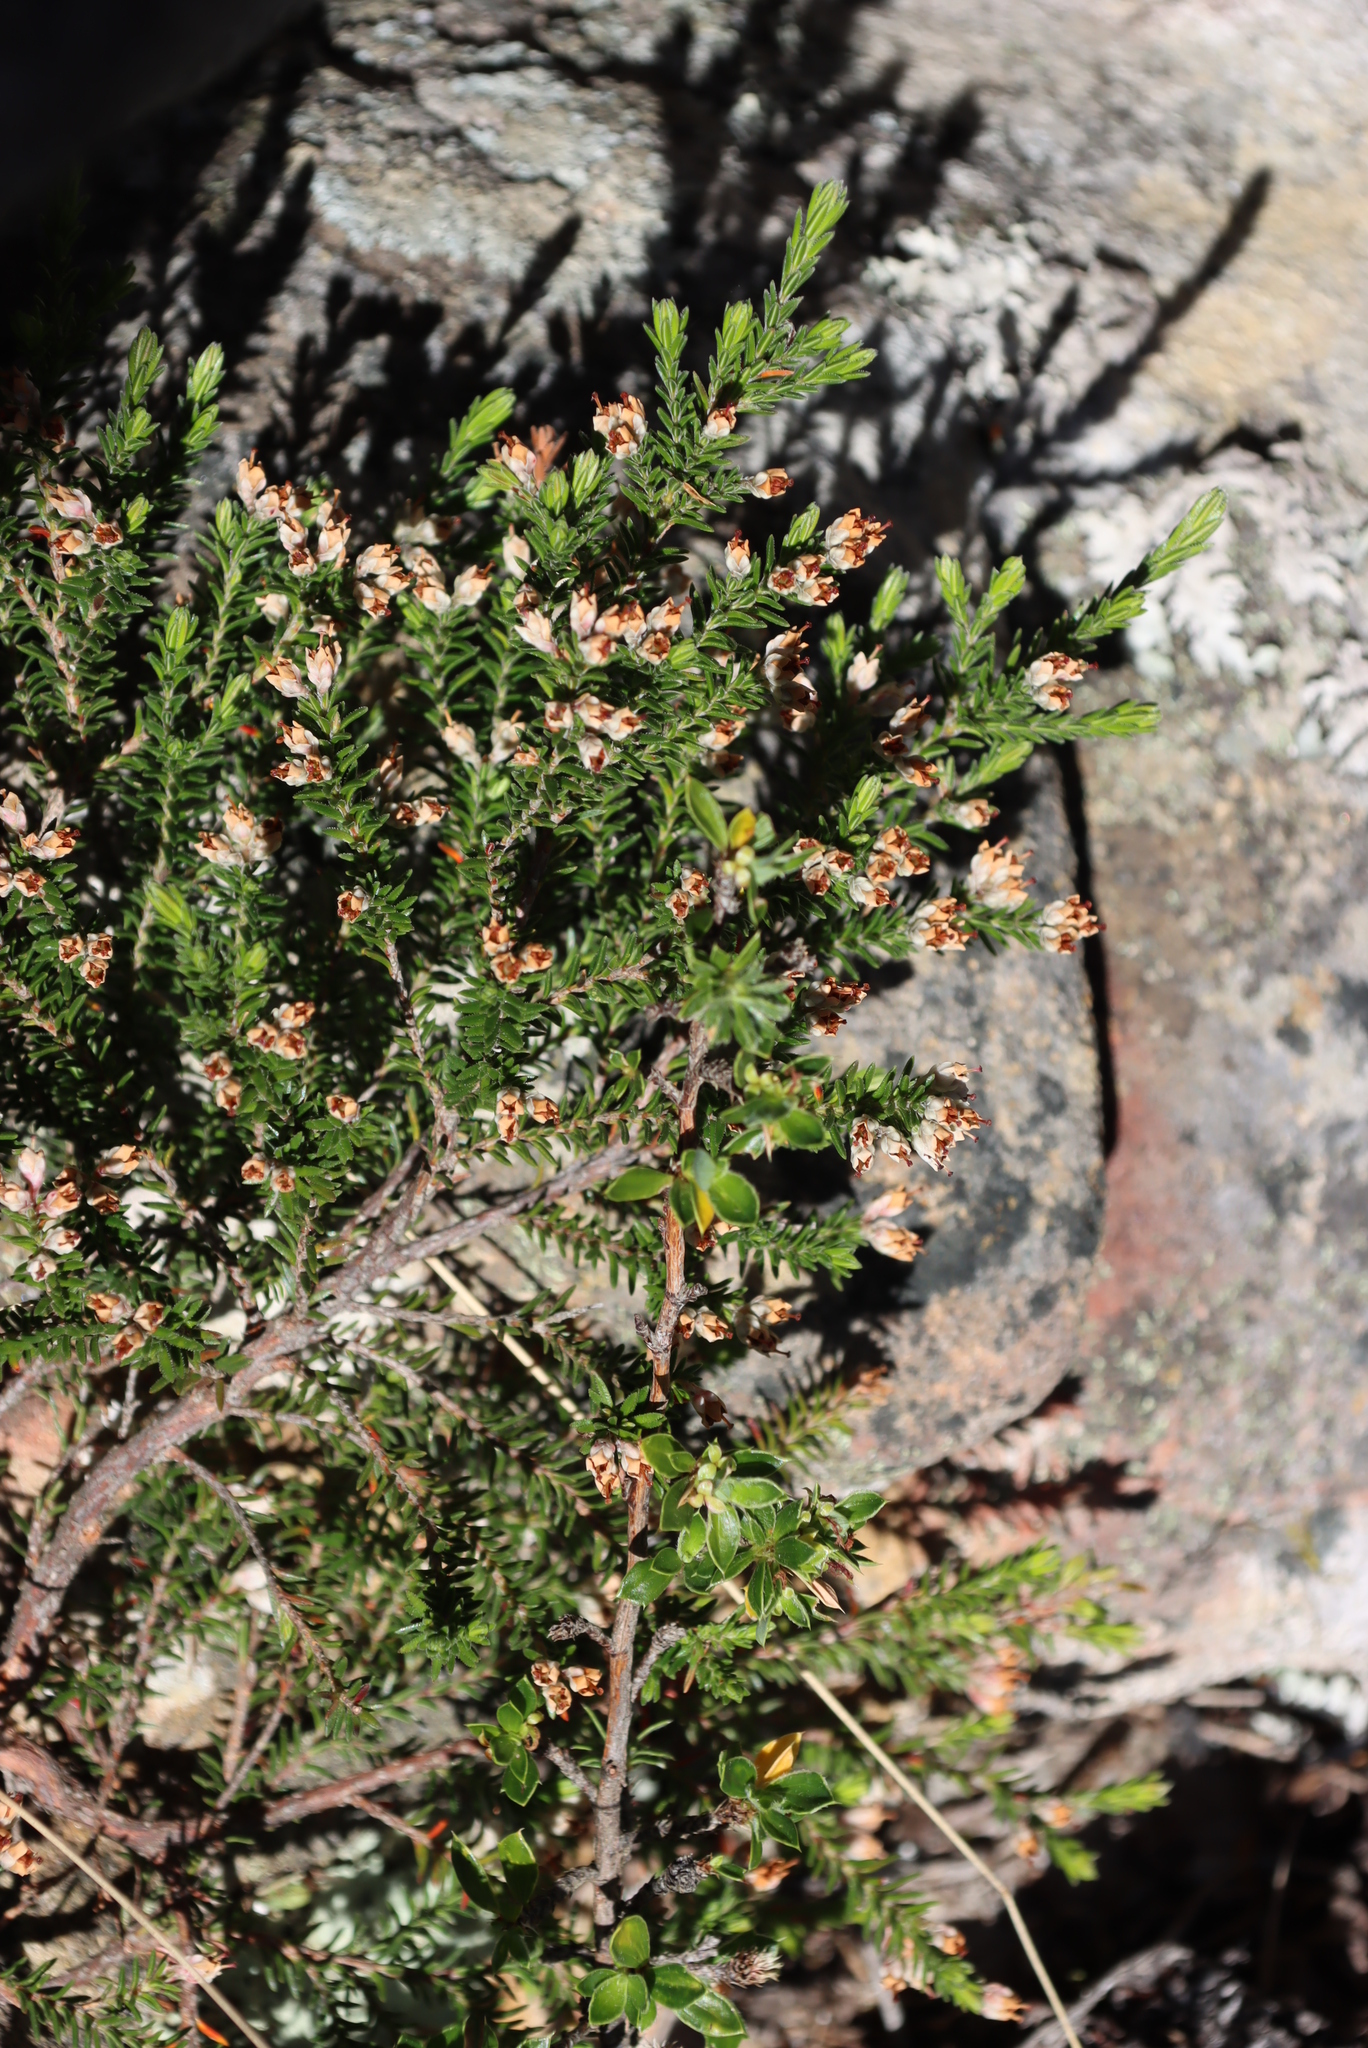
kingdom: Plantae
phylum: Tracheophyta
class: Magnoliopsida
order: Ericales
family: Ericaceae
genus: Erica
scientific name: Erica diosmifolia
